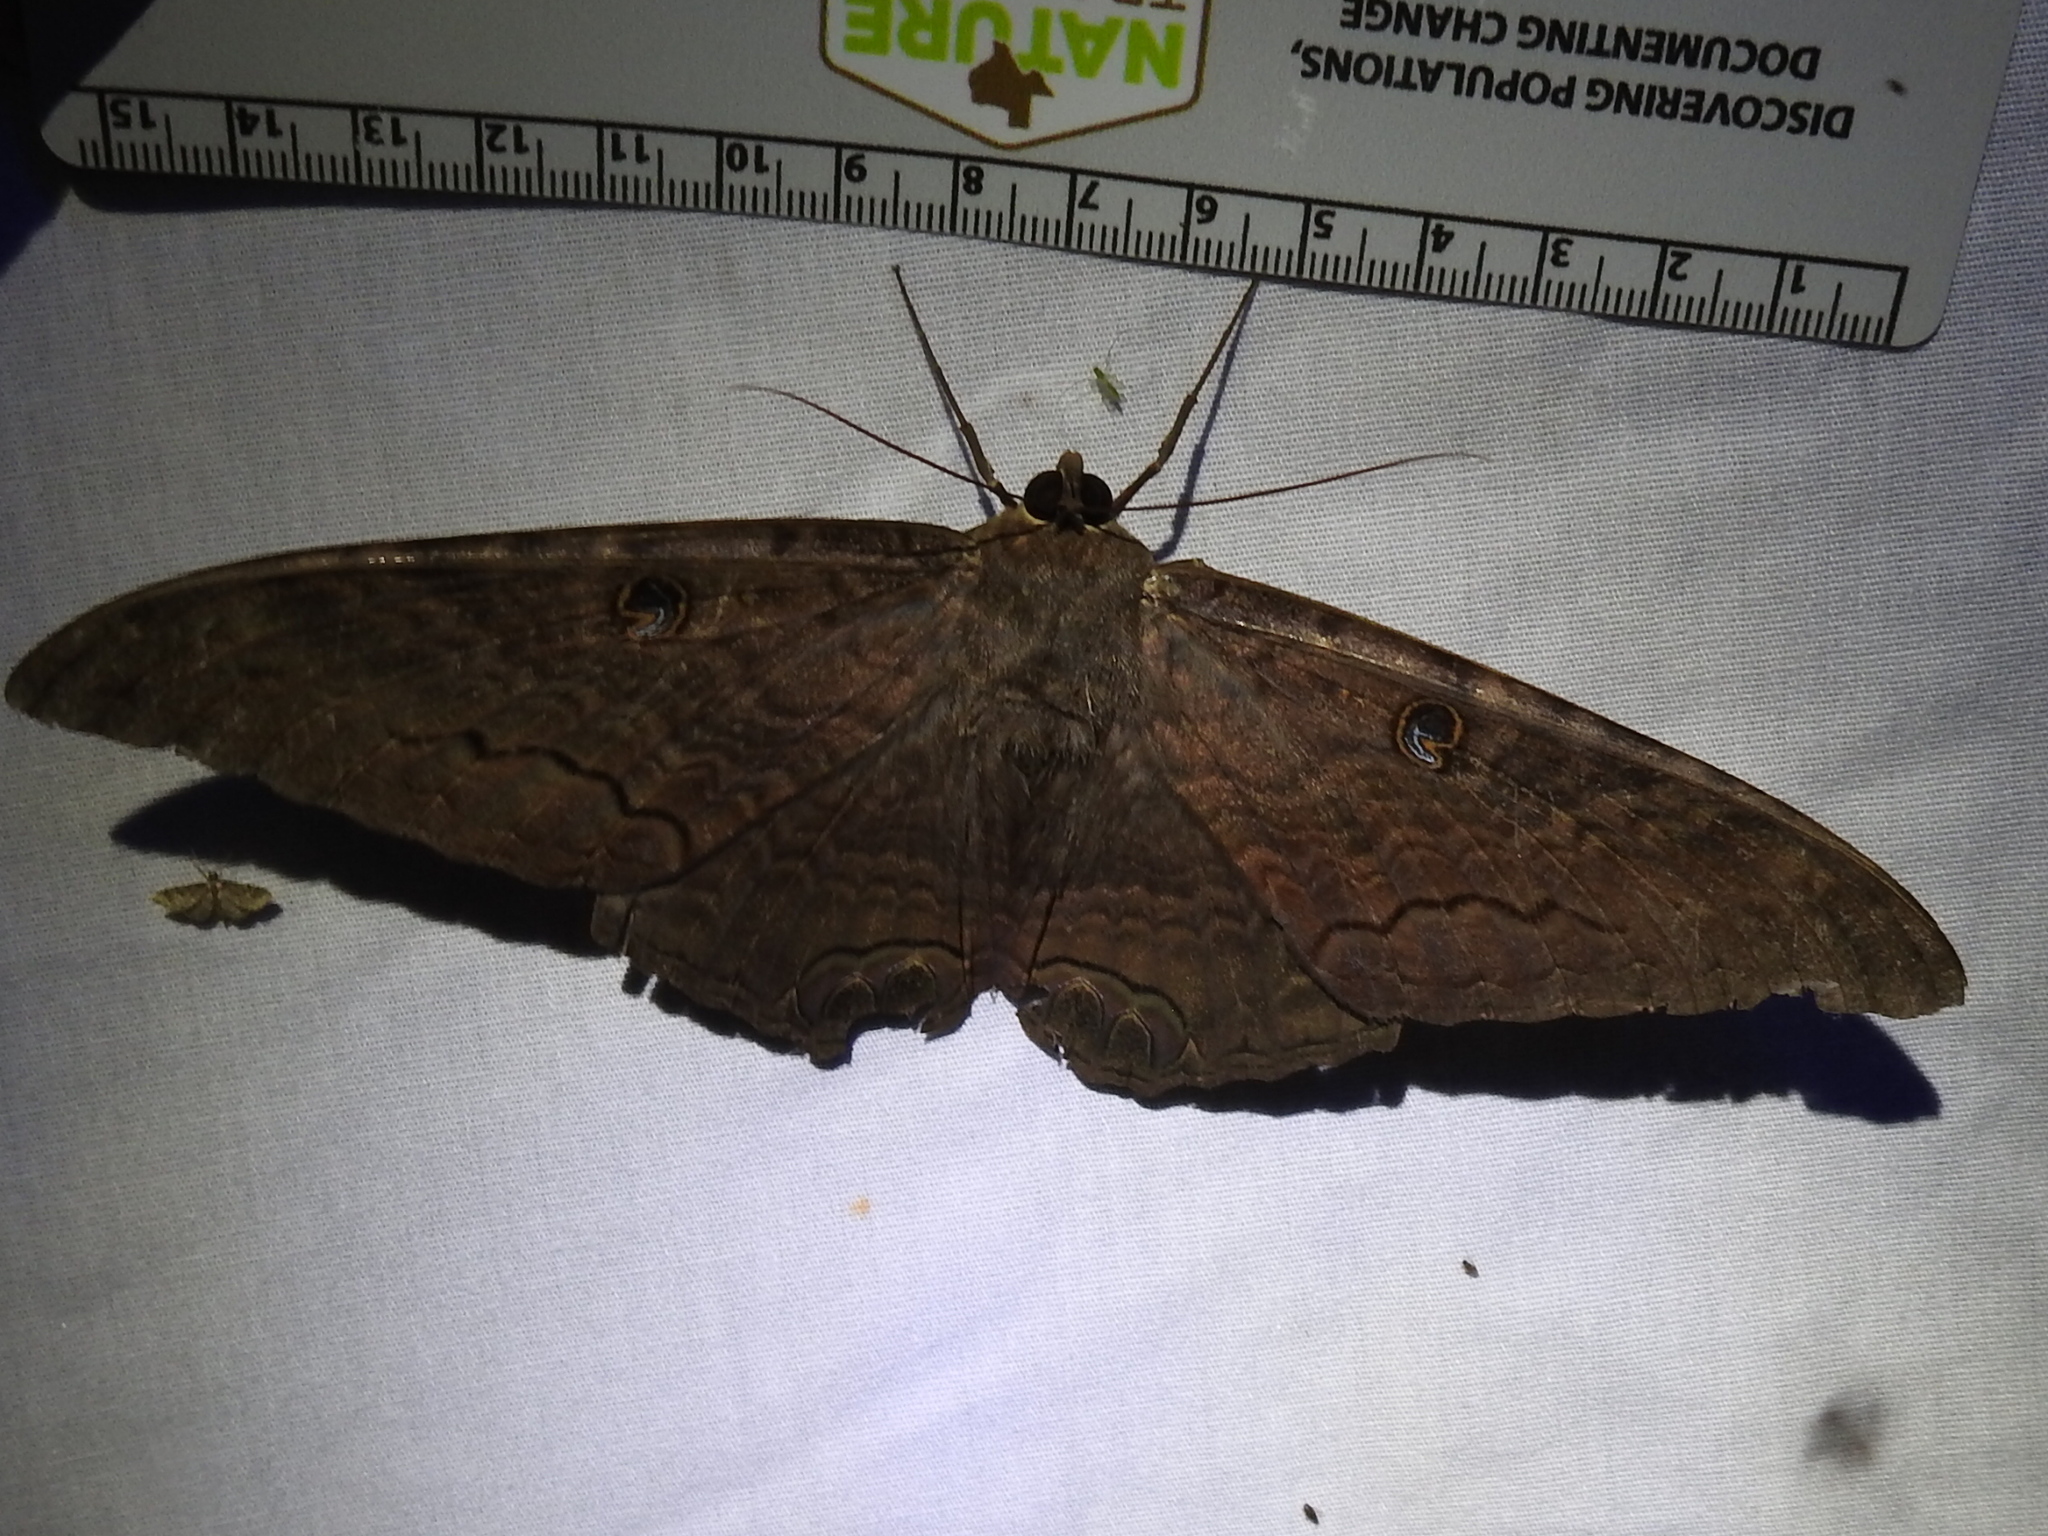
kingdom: Animalia
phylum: Arthropoda
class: Insecta
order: Lepidoptera
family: Erebidae
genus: Ascalapha
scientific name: Ascalapha odorata
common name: Black witch
